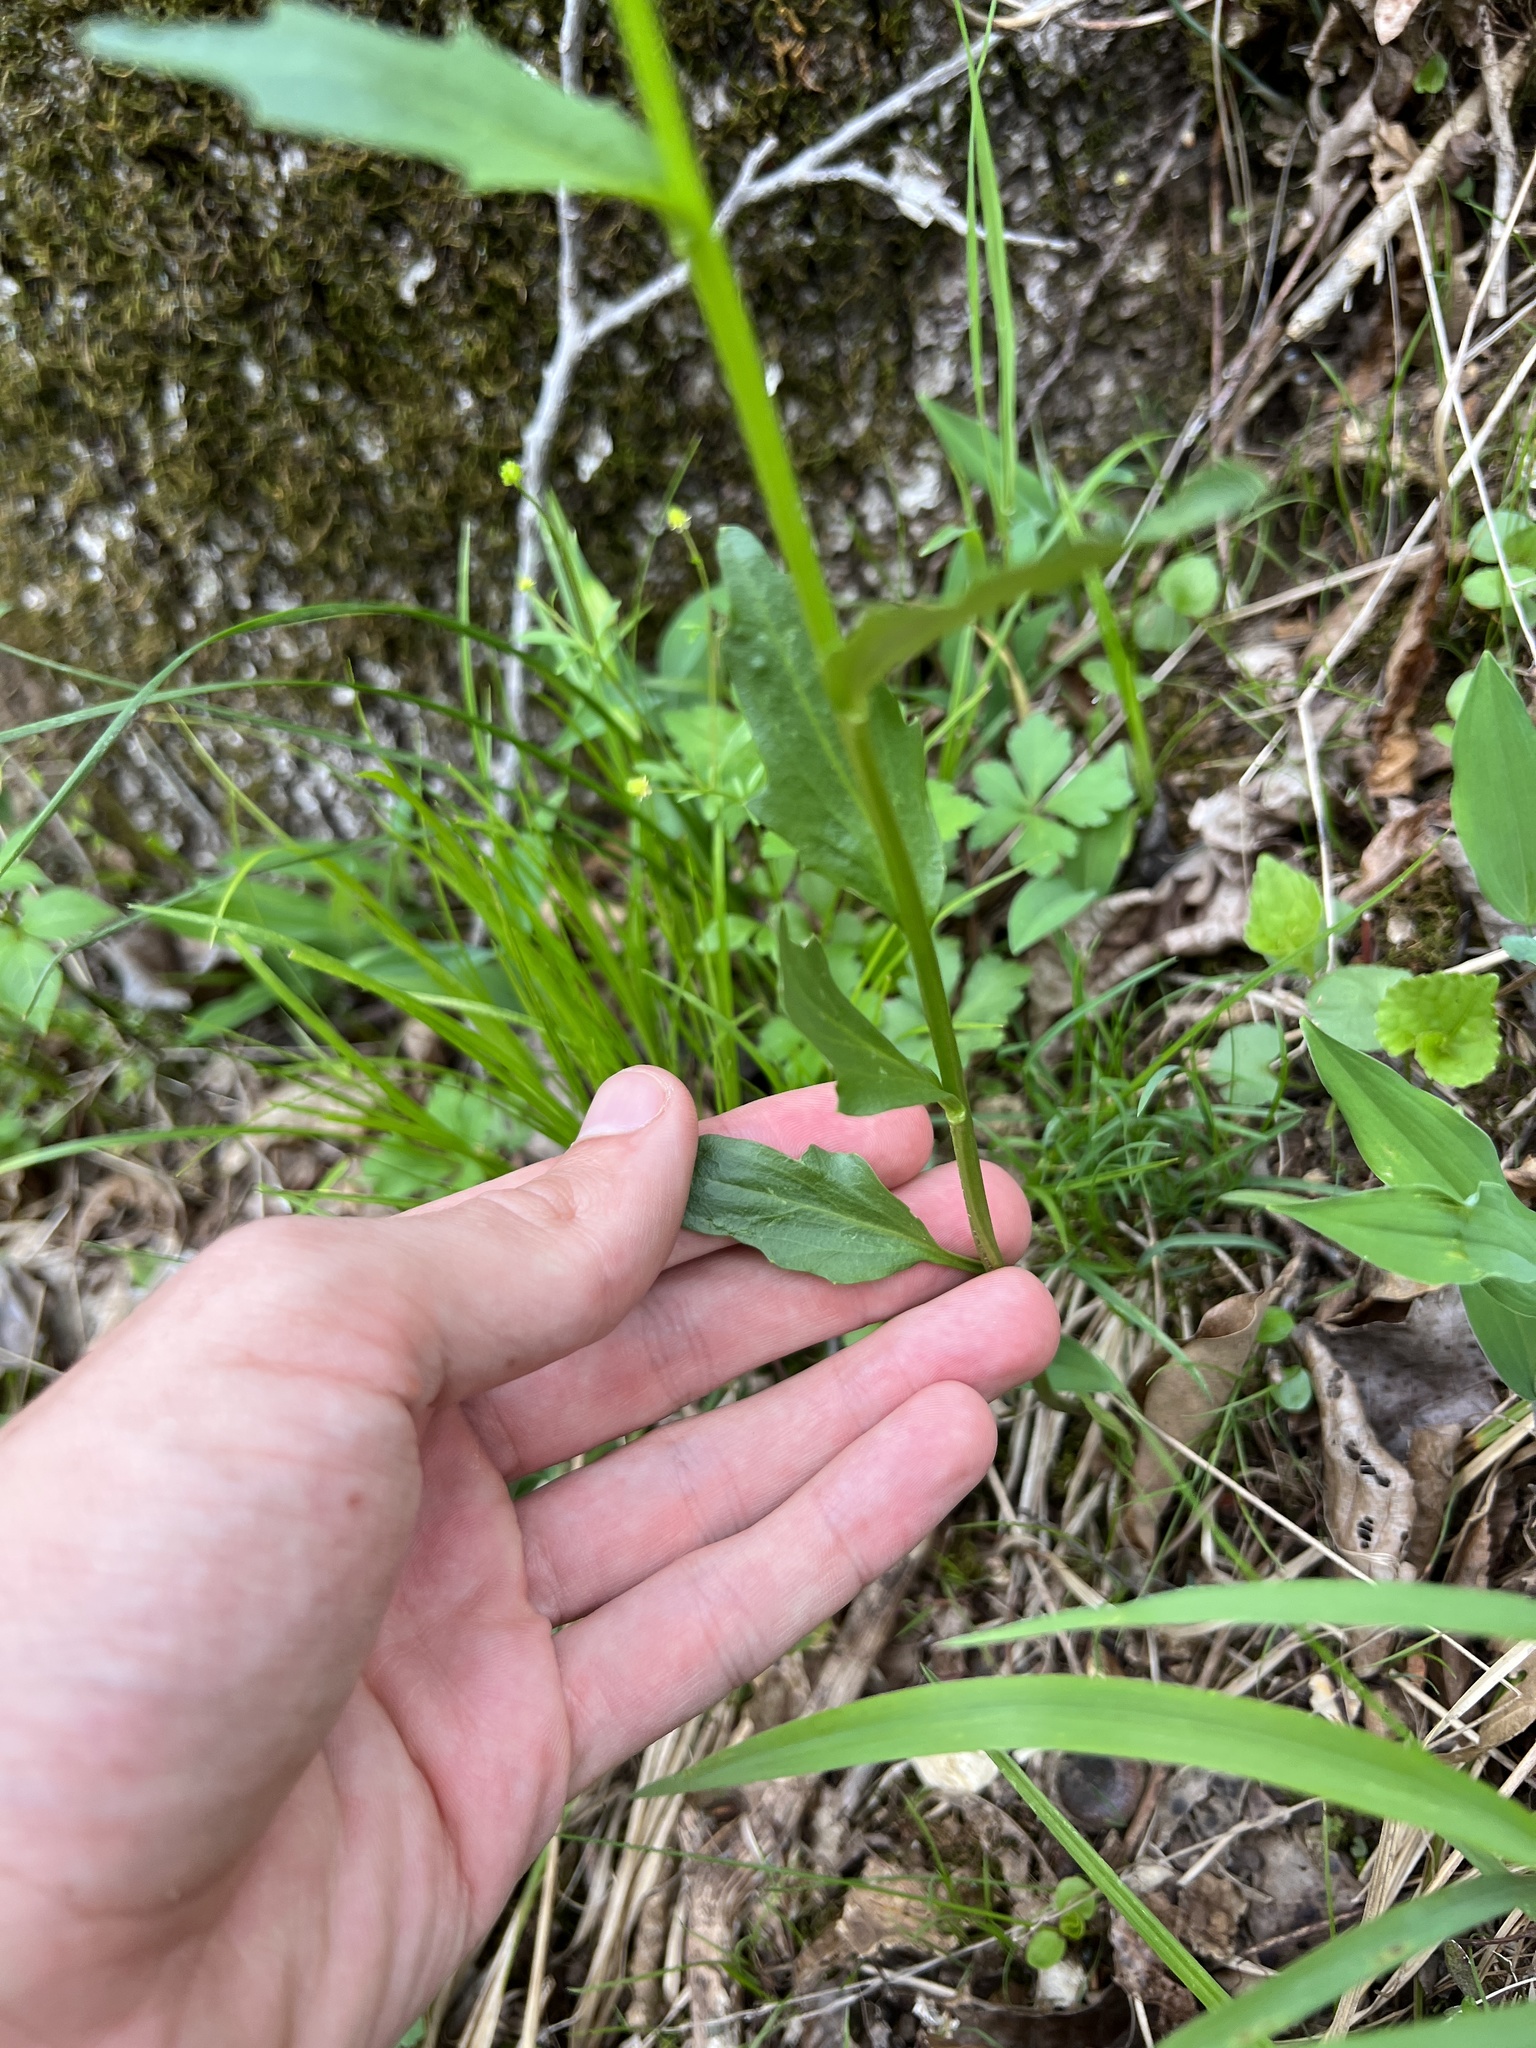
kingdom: Plantae
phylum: Tracheophyta
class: Magnoliopsida
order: Brassicales
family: Brassicaceae
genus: Cardamine
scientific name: Cardamine bulbosa
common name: Spring cress
